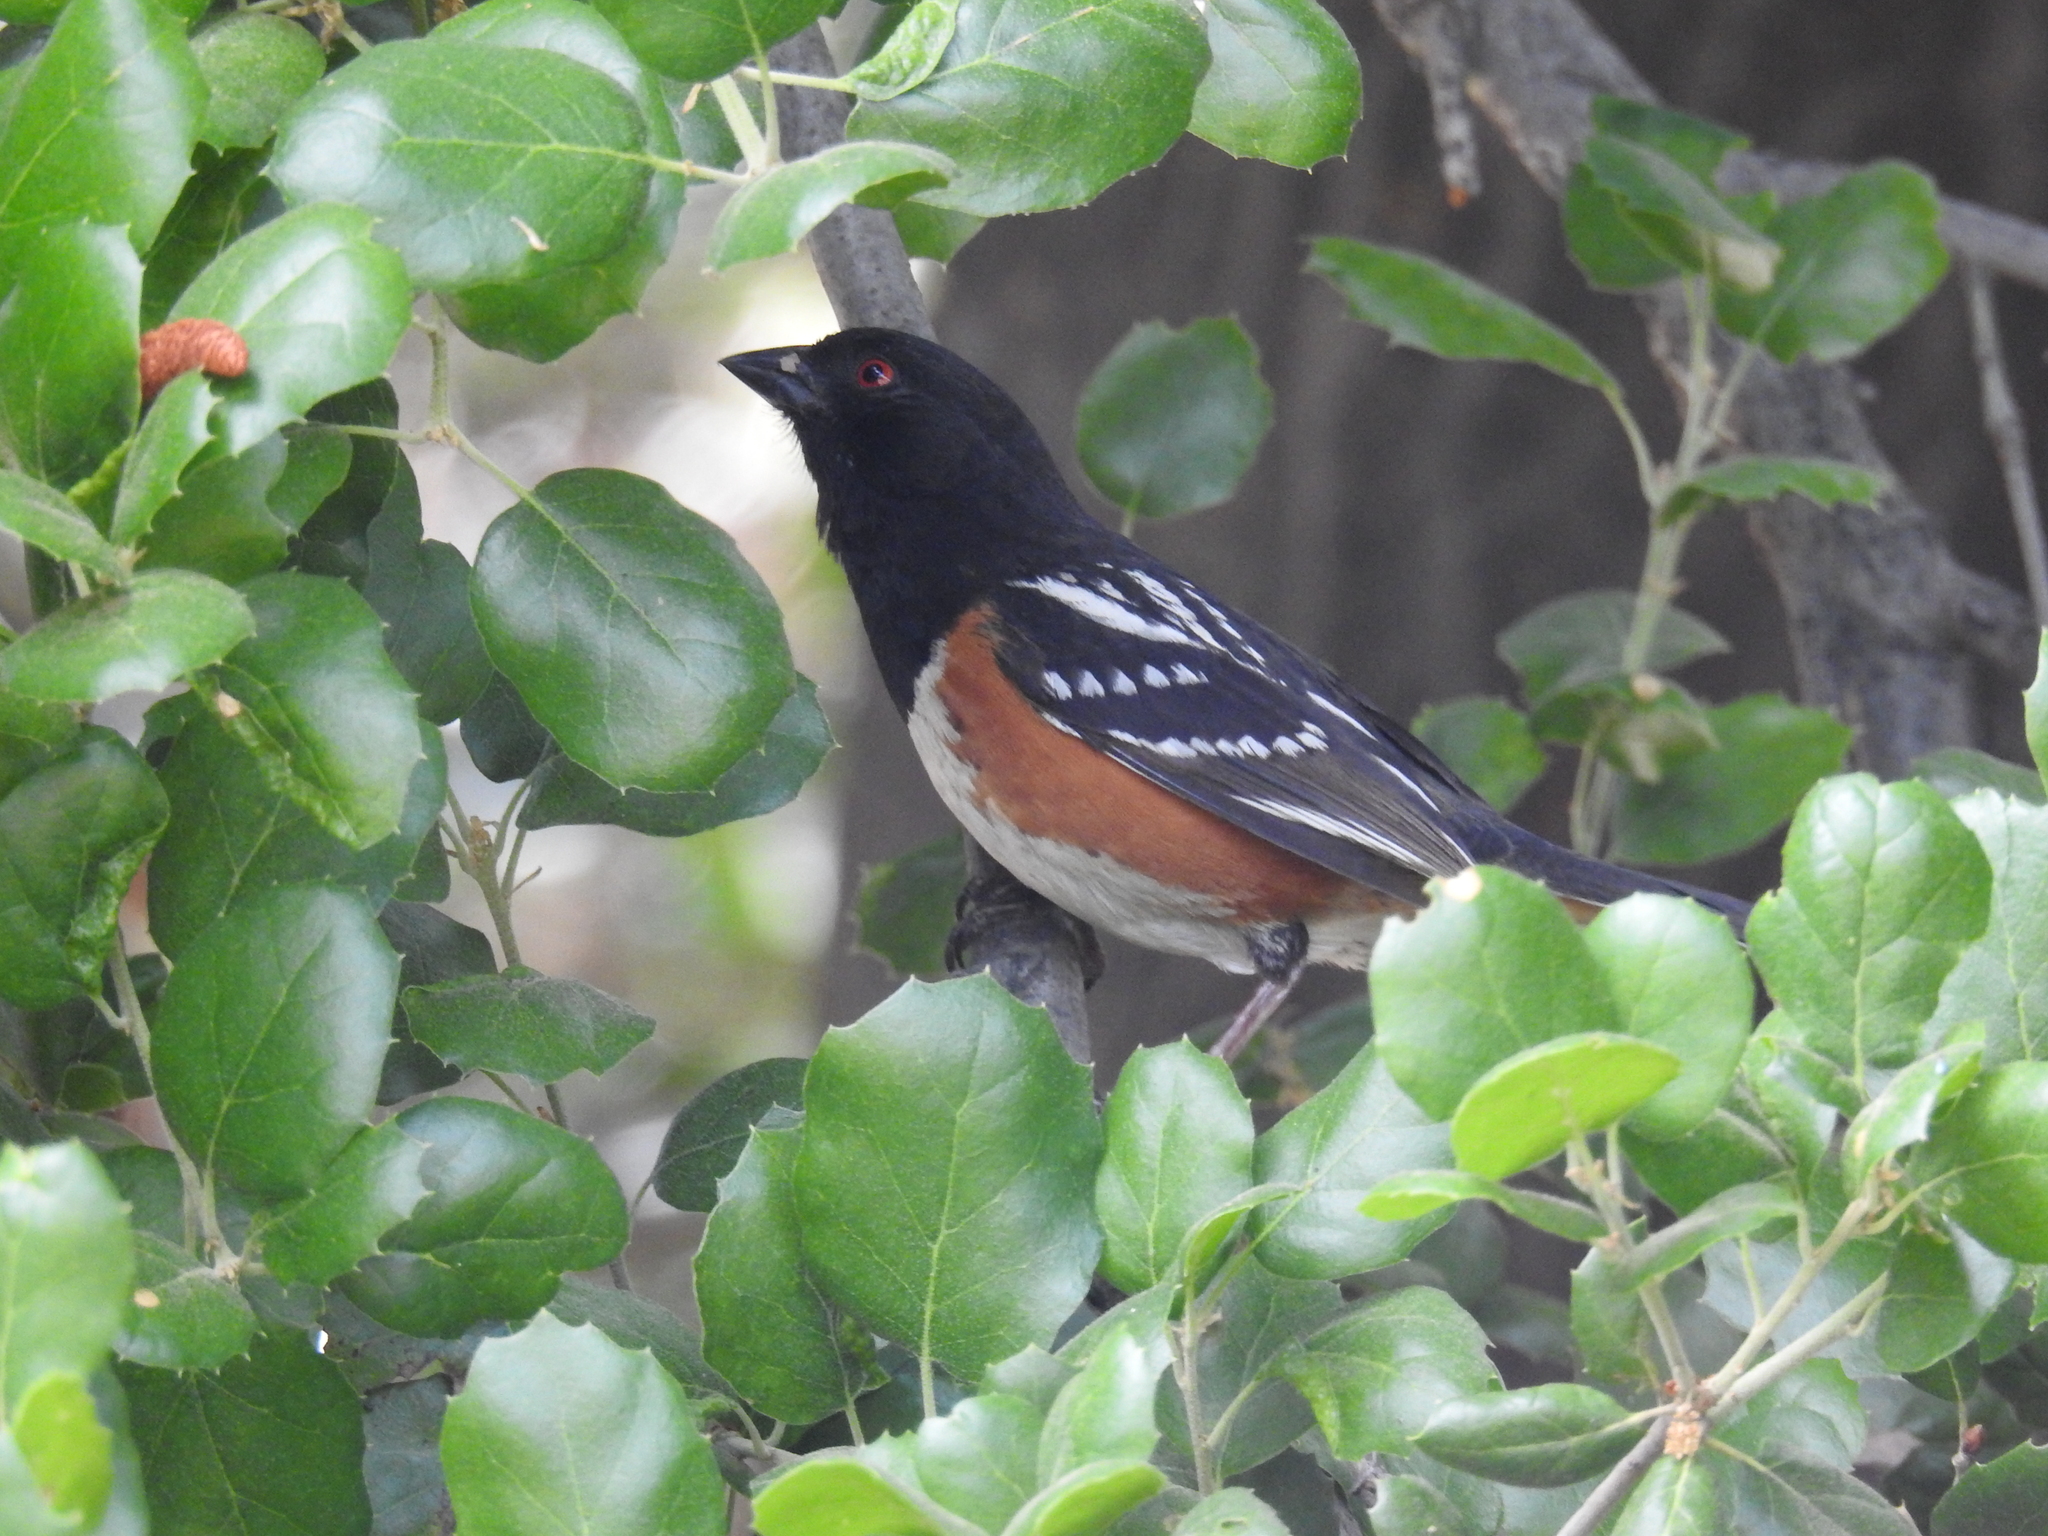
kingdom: Animalia
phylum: Chordata
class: Aves
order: Passeriformes
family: Passerellidae
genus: Pipilo
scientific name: Pipilo maculatus
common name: Spotted towhee
